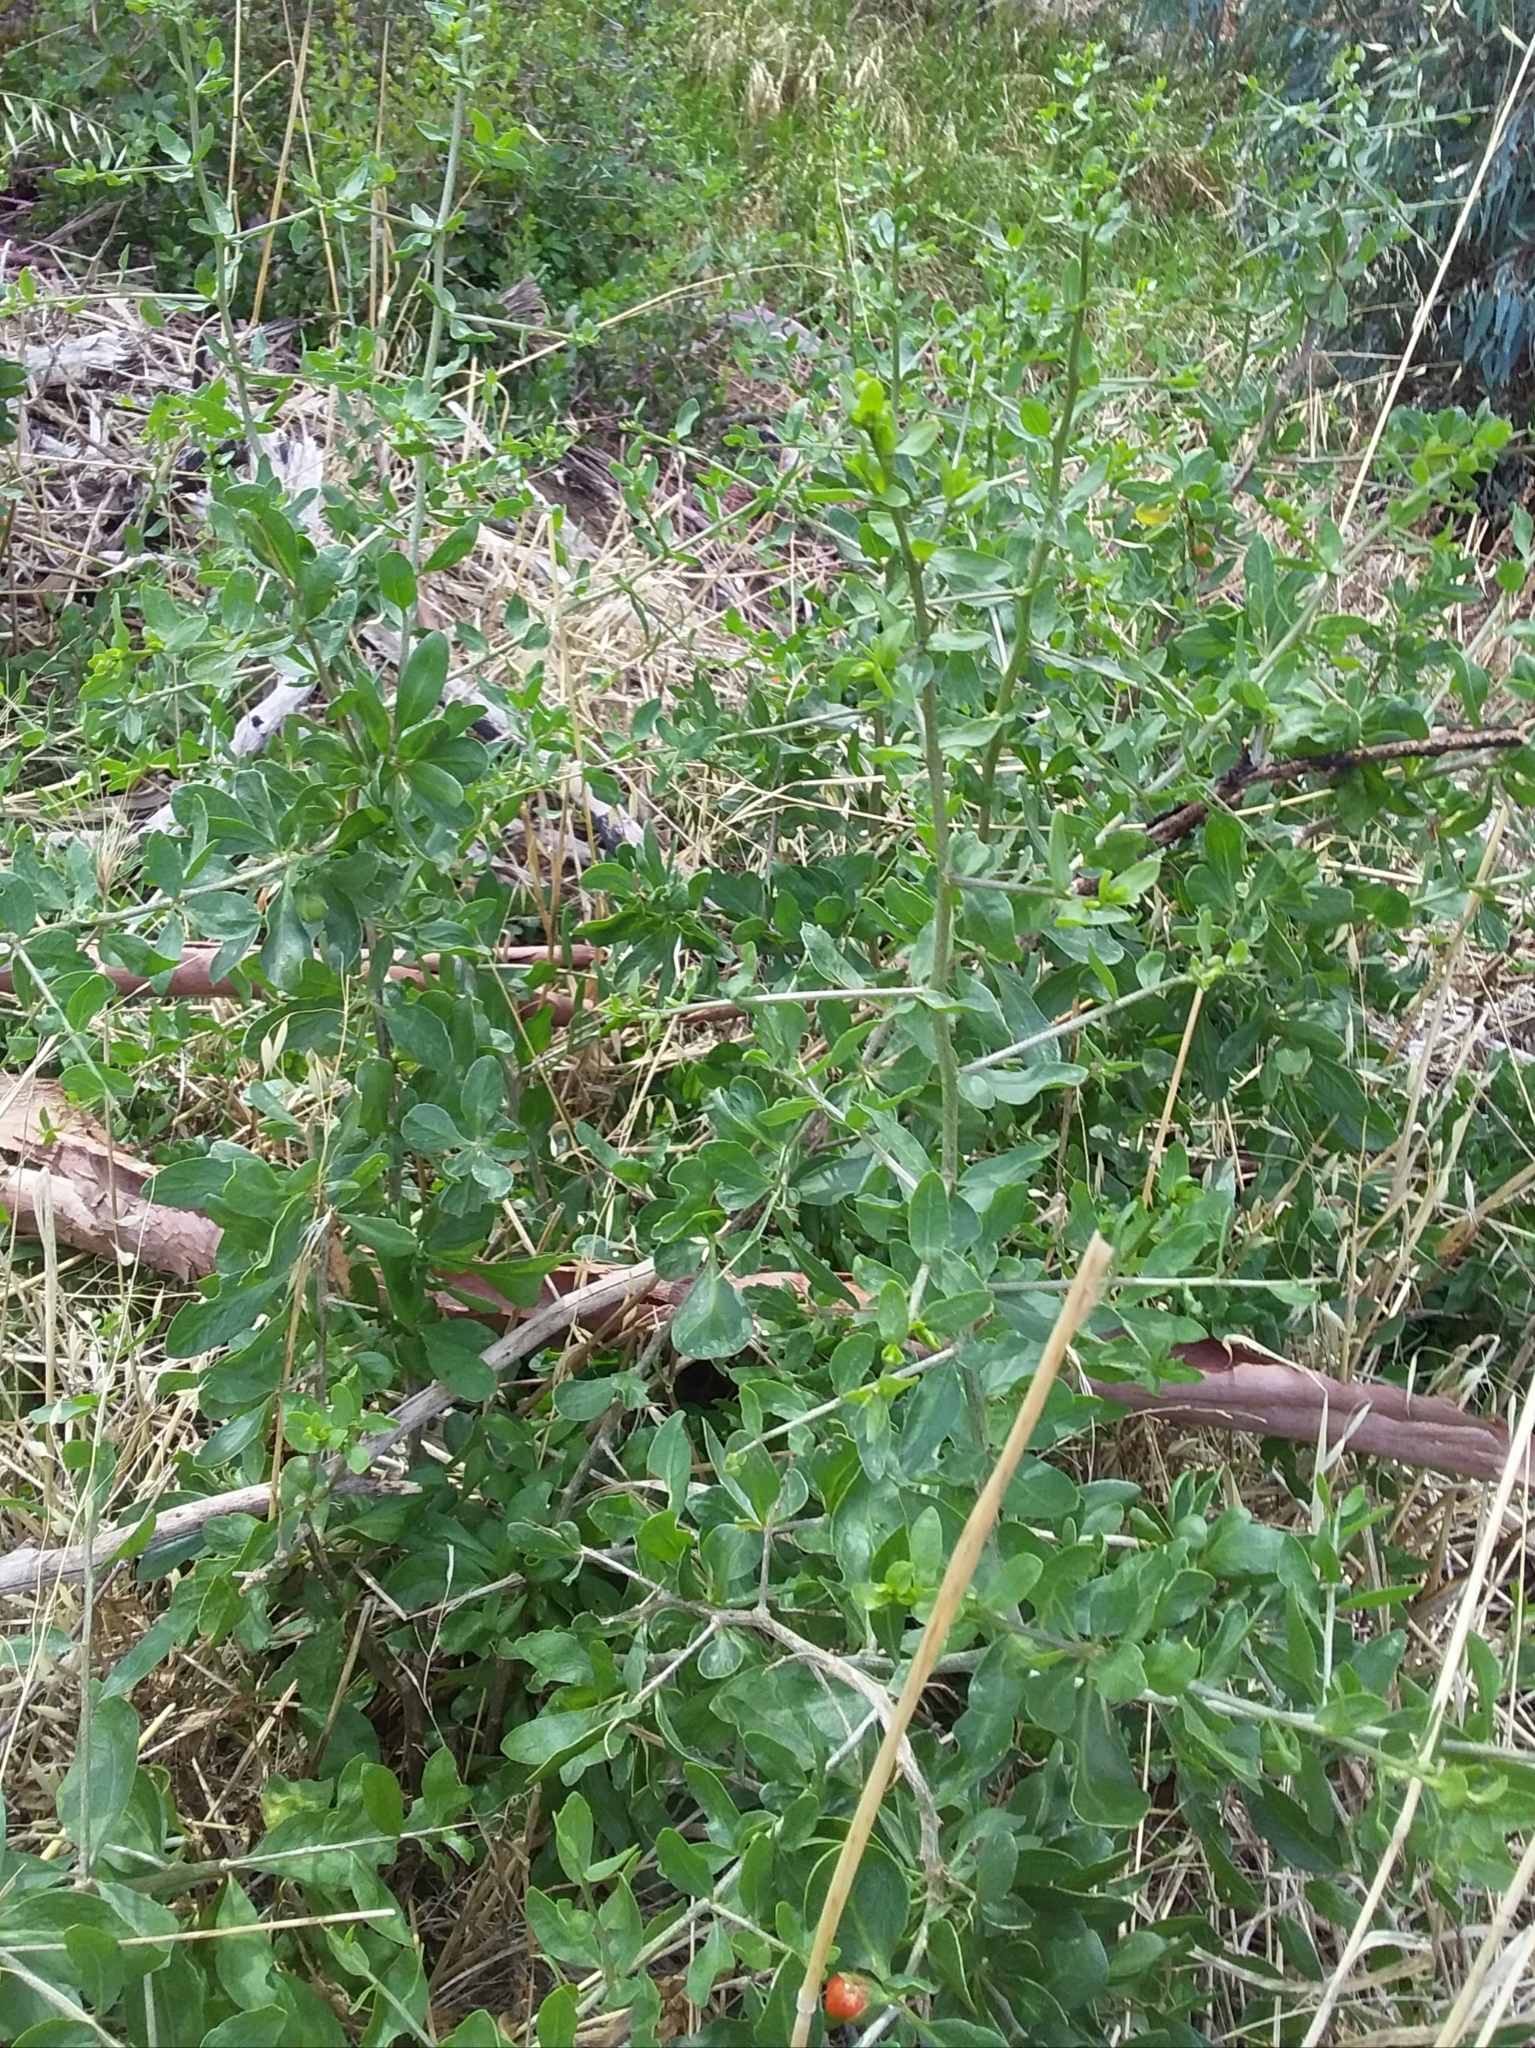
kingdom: Plantae
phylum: Tracheophyta
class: Magnoliopsida
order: Solanales
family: Solanaceae
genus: Lycium
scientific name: Lycium ferocissimum
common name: African boxthorn
